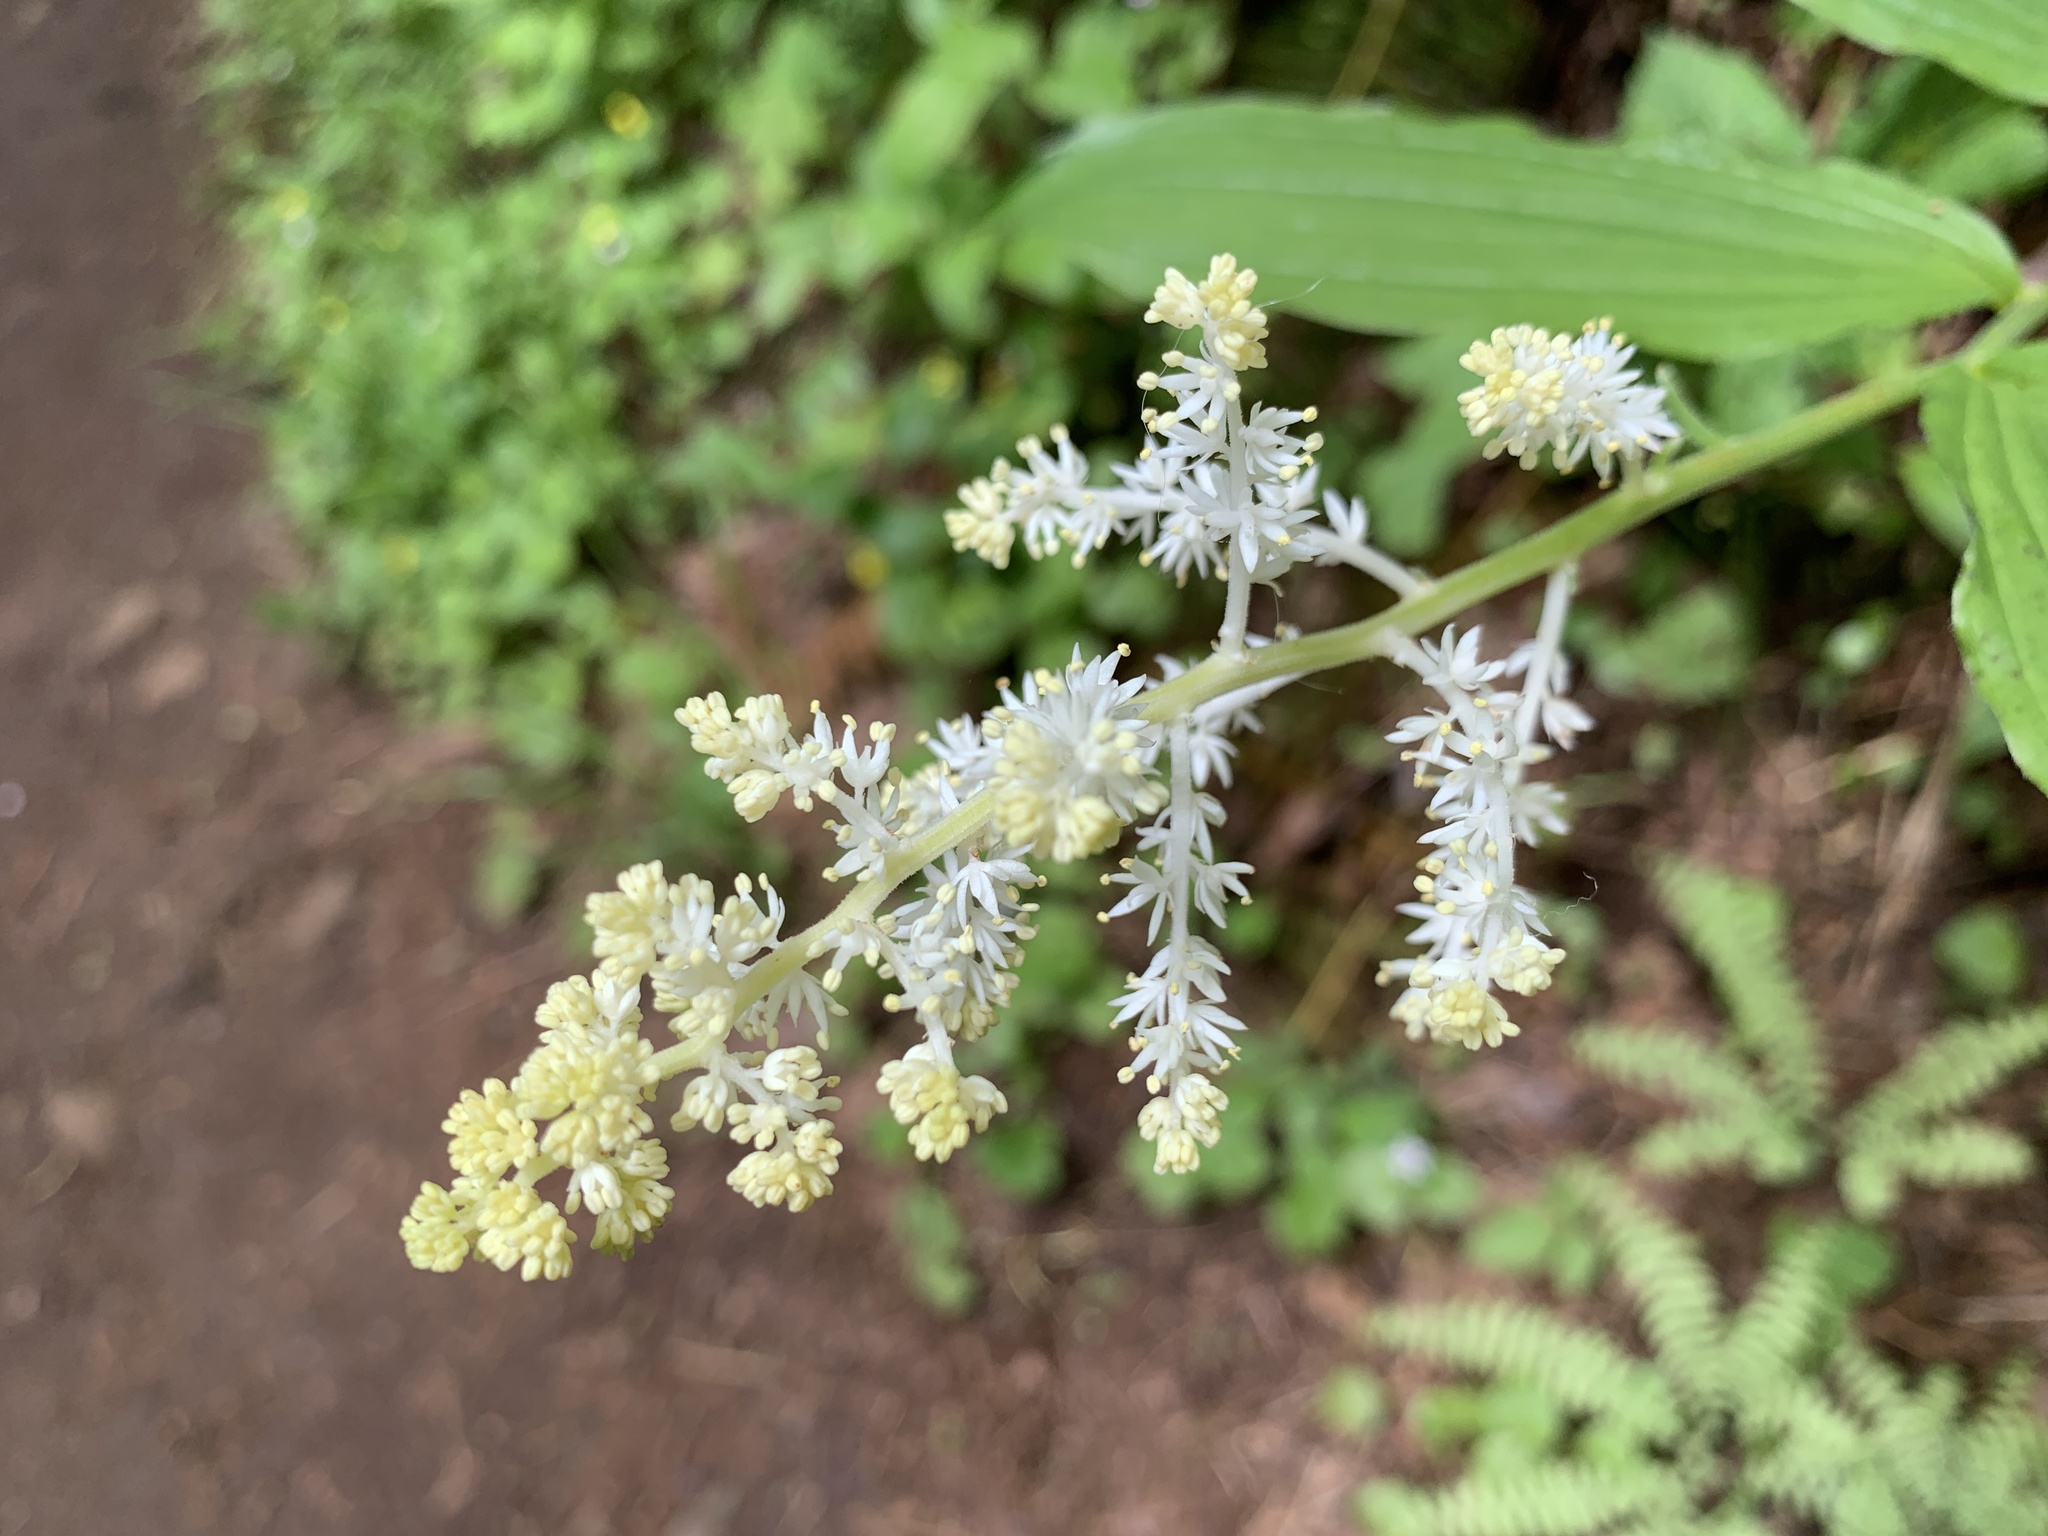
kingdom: Plantae
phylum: Tracheophyta
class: Liliopsida
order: Asparagales
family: Asparagaceae
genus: Maianthemum
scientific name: Maianthemum racemosum
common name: False spikenard
